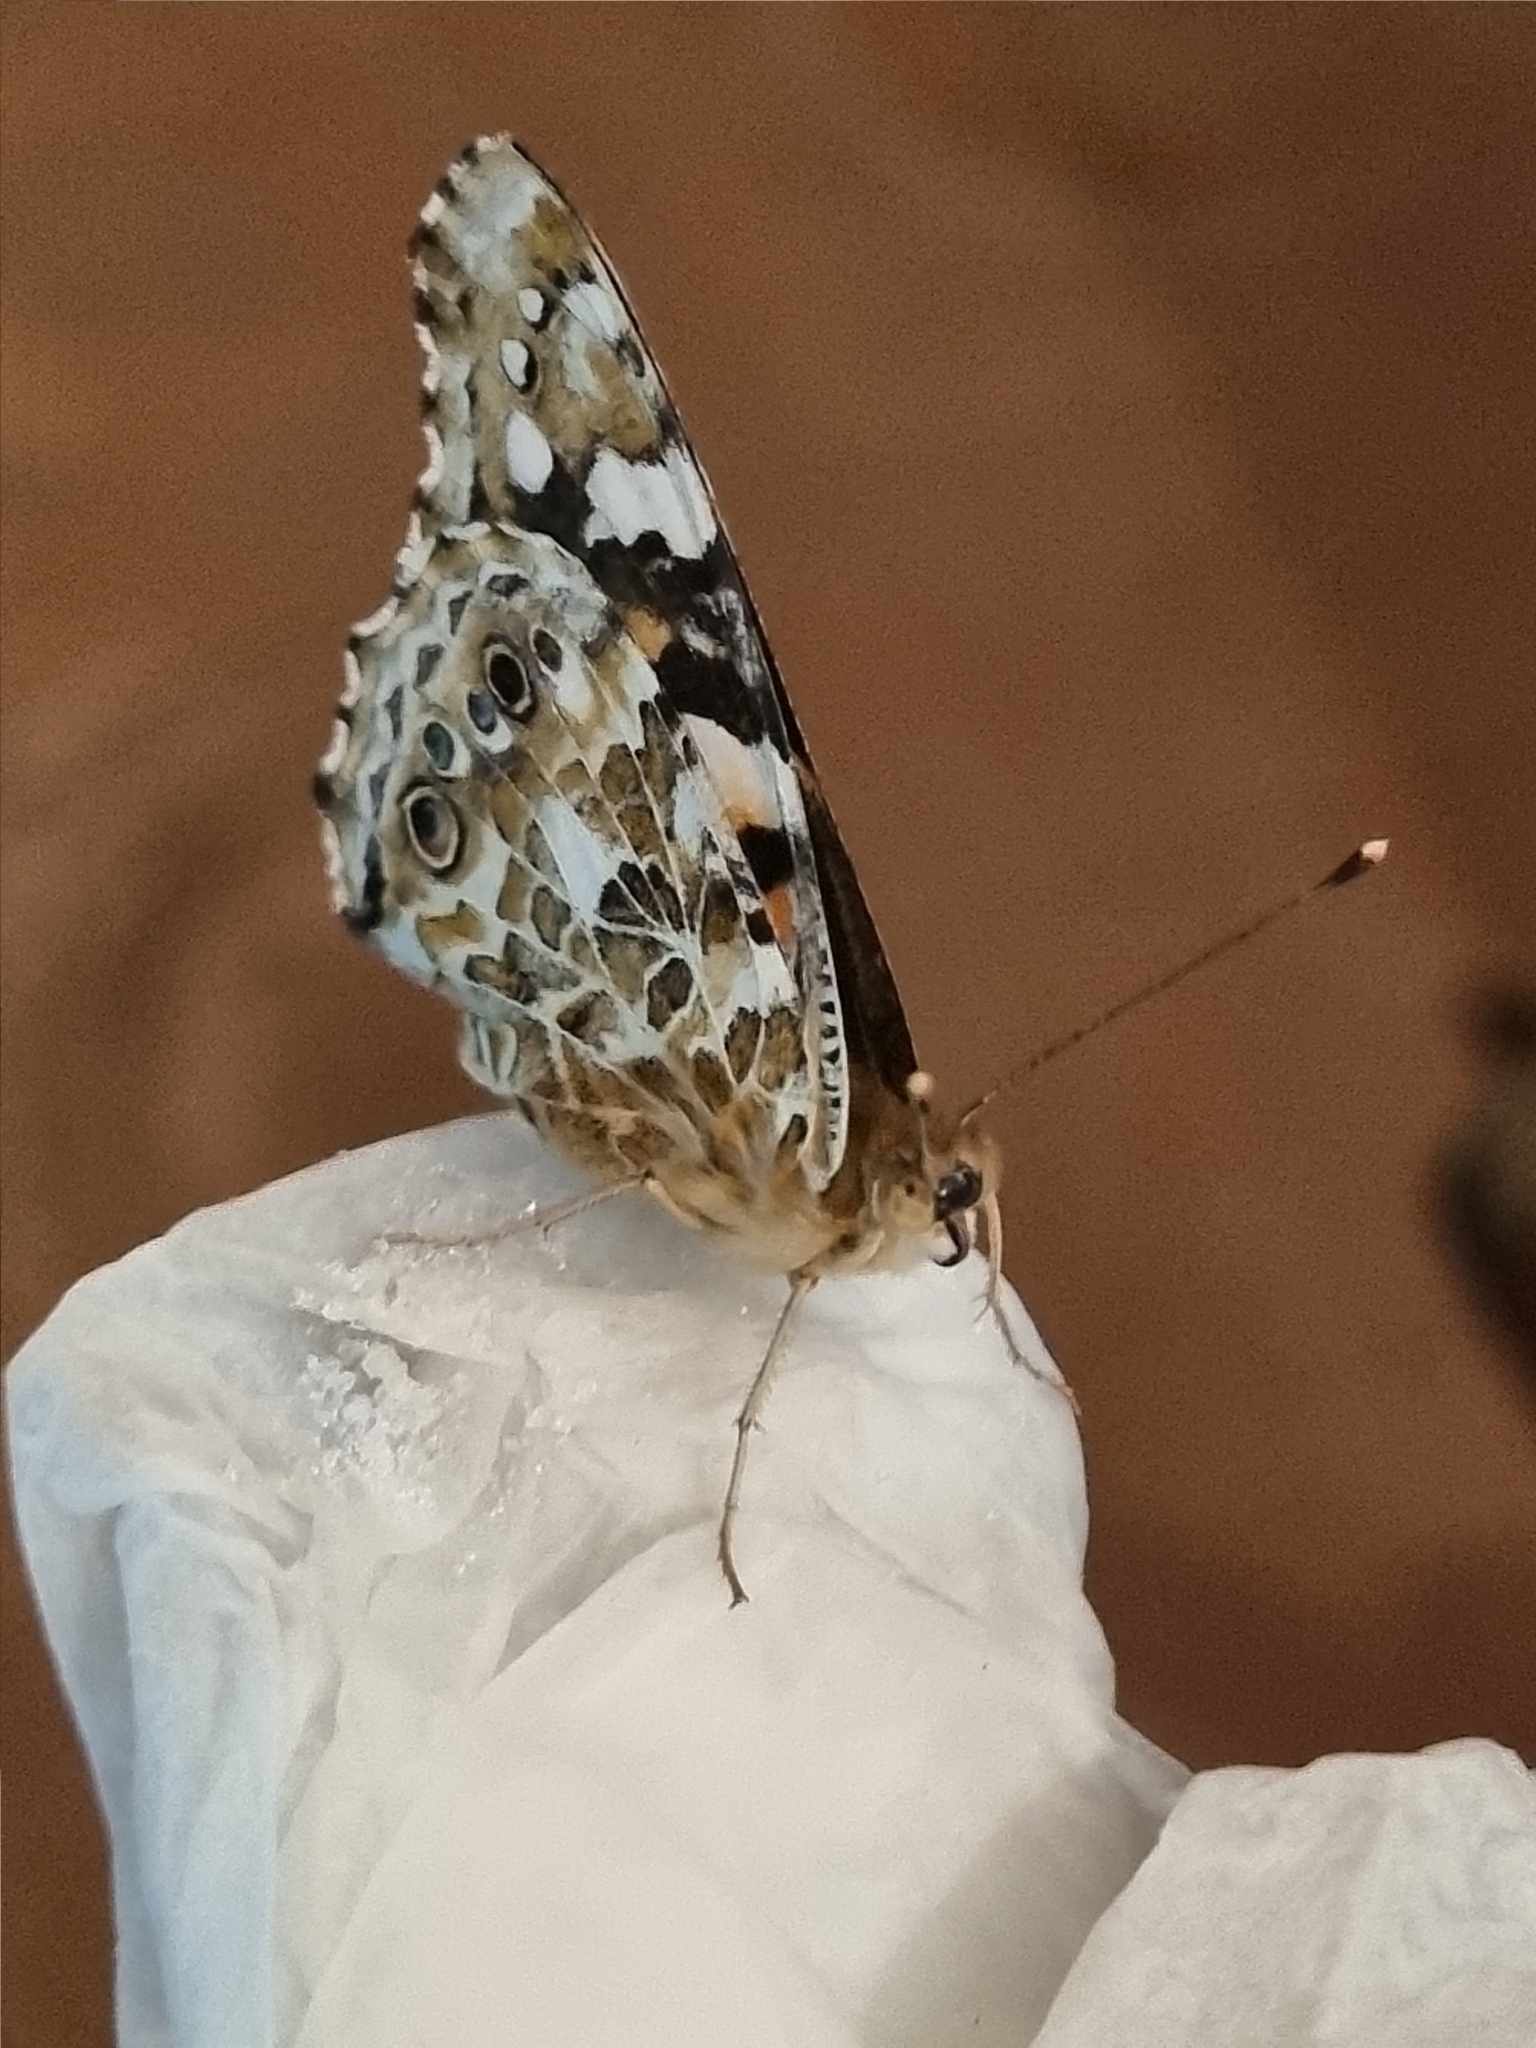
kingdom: Animalia
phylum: Arthropoda
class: Insecta
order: Lepidoptera
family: Nymphalidae
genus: Vanessa
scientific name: Vanessa cardui
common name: Painted lady
